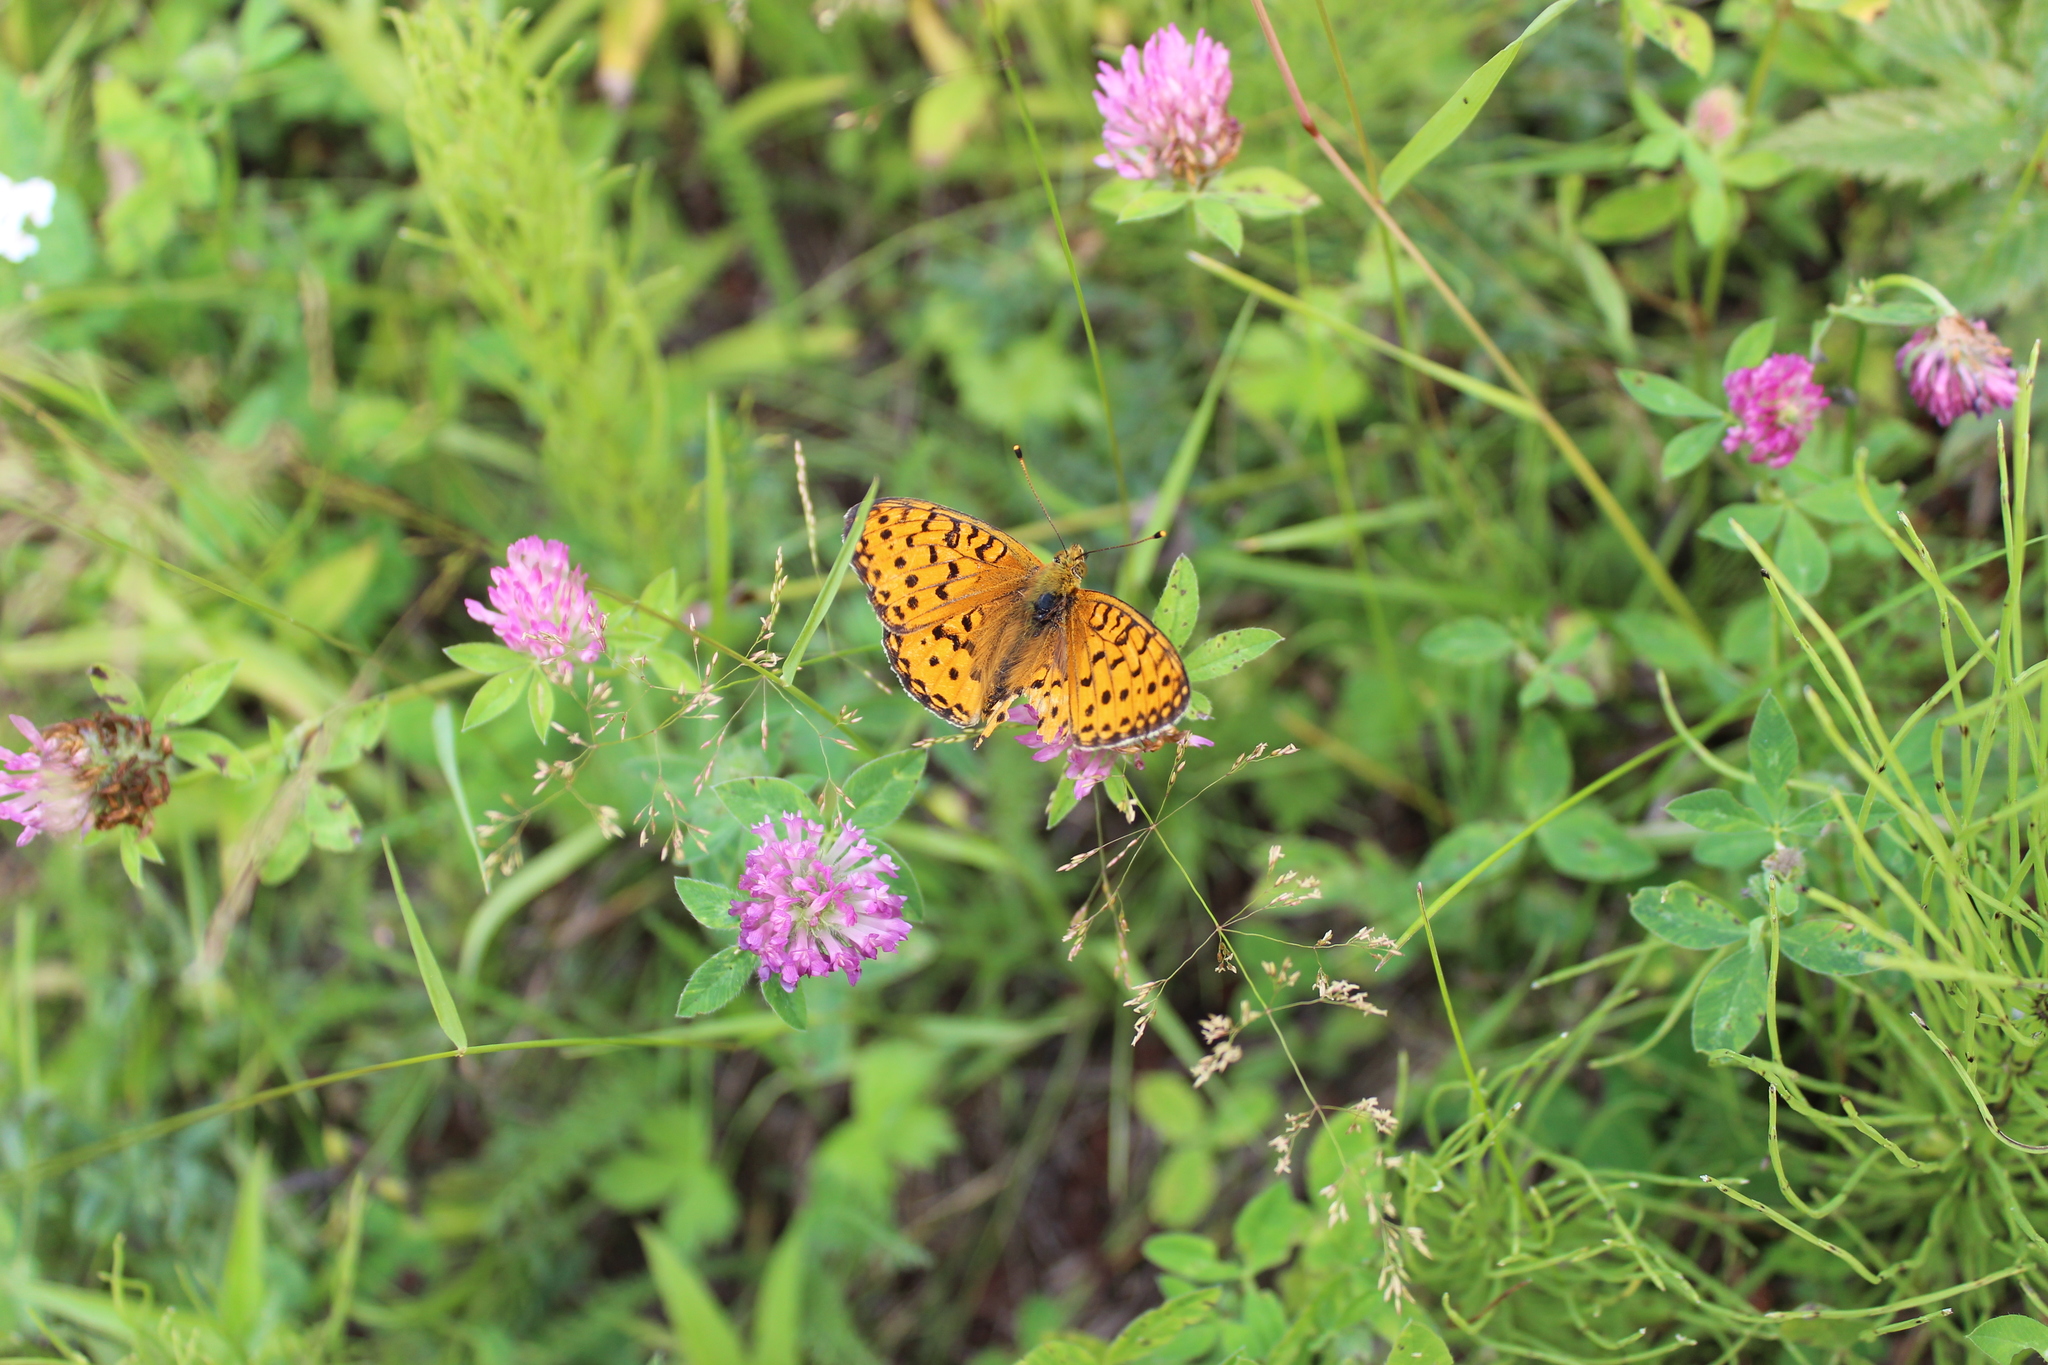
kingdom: Animalia
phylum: Arthropoda
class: Insecta
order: Lepidoptera
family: Nymphalidae
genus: Speyeria
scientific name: Speyeria aglaja
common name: Dark green fritillary
